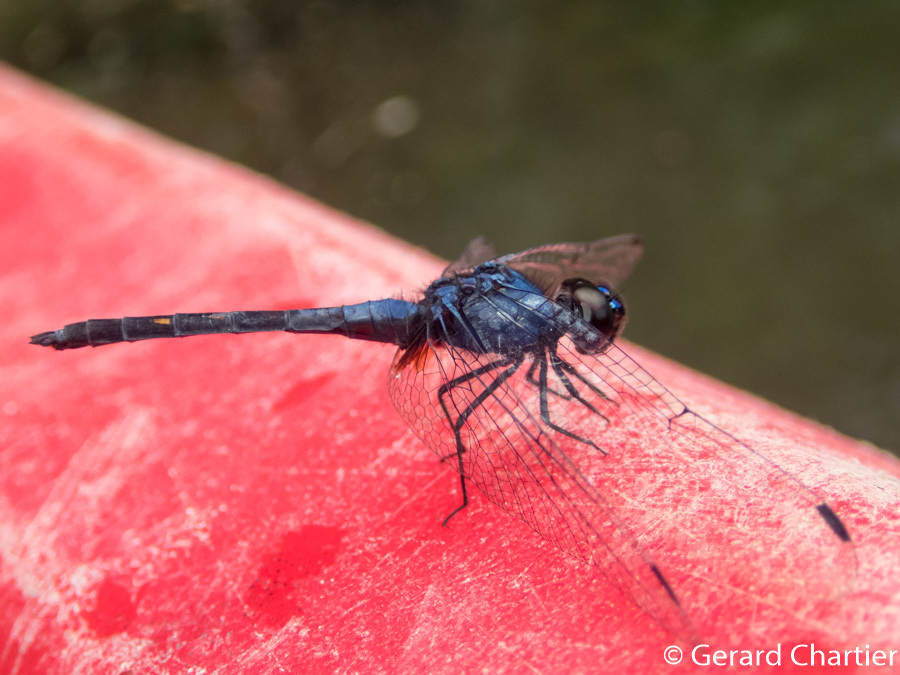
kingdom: Animalia
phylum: Arthropoda
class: Insecta
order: Odonata
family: Libellulidae
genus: Trithemis
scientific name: Trithemis festiva
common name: Indigo dropwing
